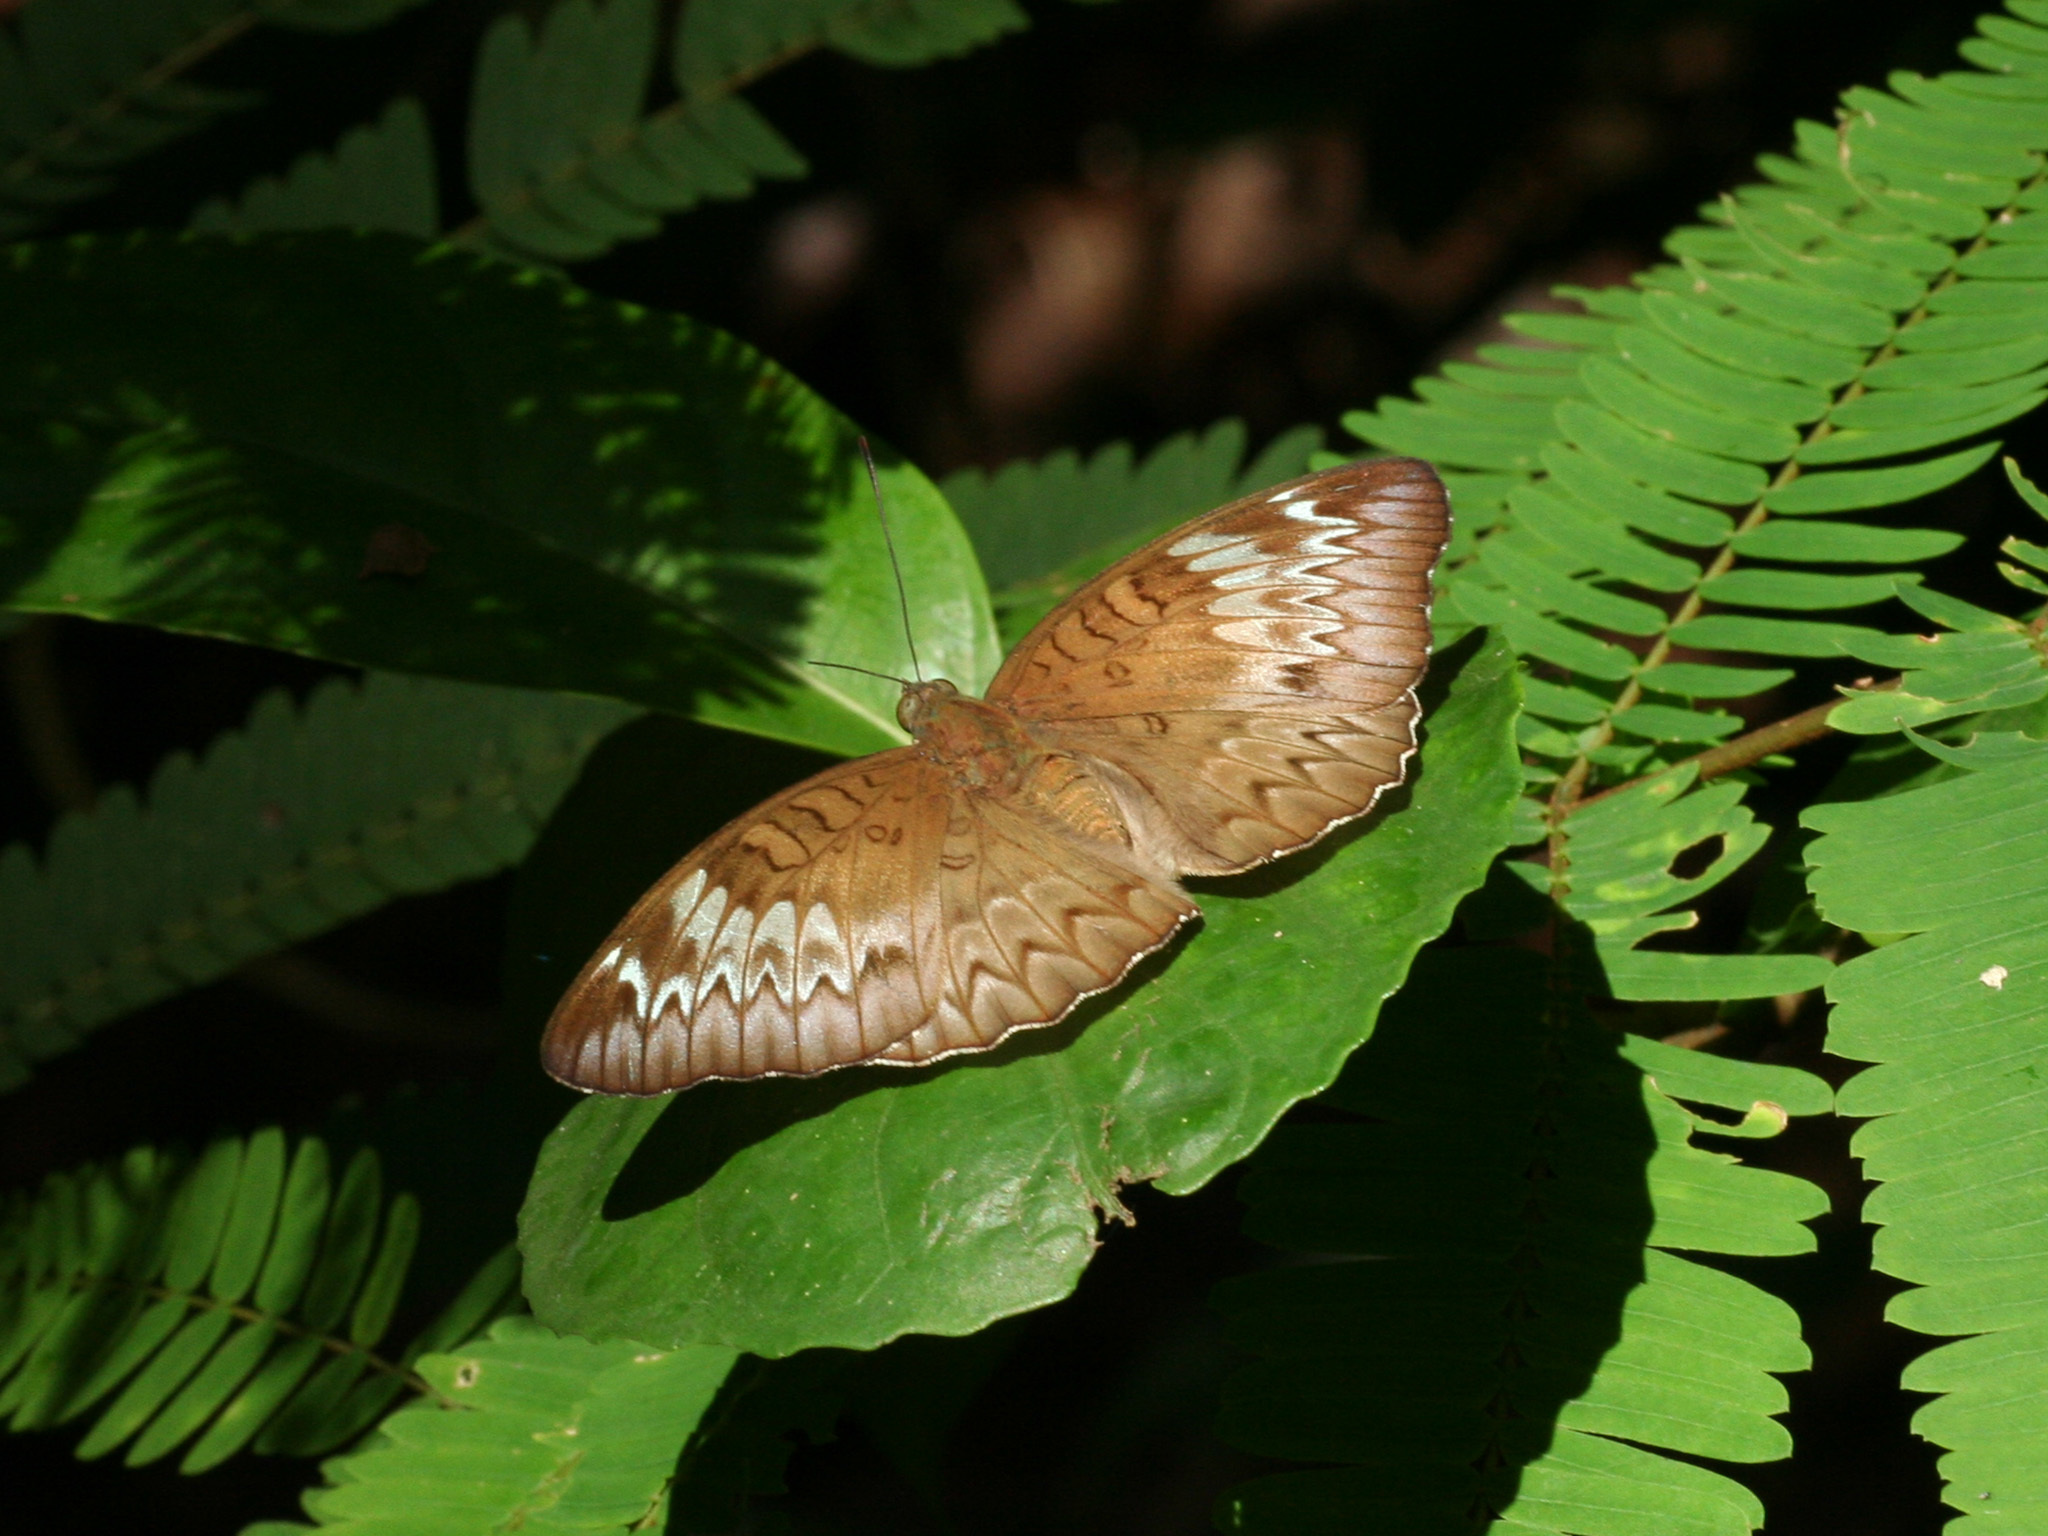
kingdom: Animalia
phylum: Arthropoda
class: Insecta
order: Lepidoptera
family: Nymphalidae
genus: Euthalia
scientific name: Euthalia monina
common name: Powdered baron
